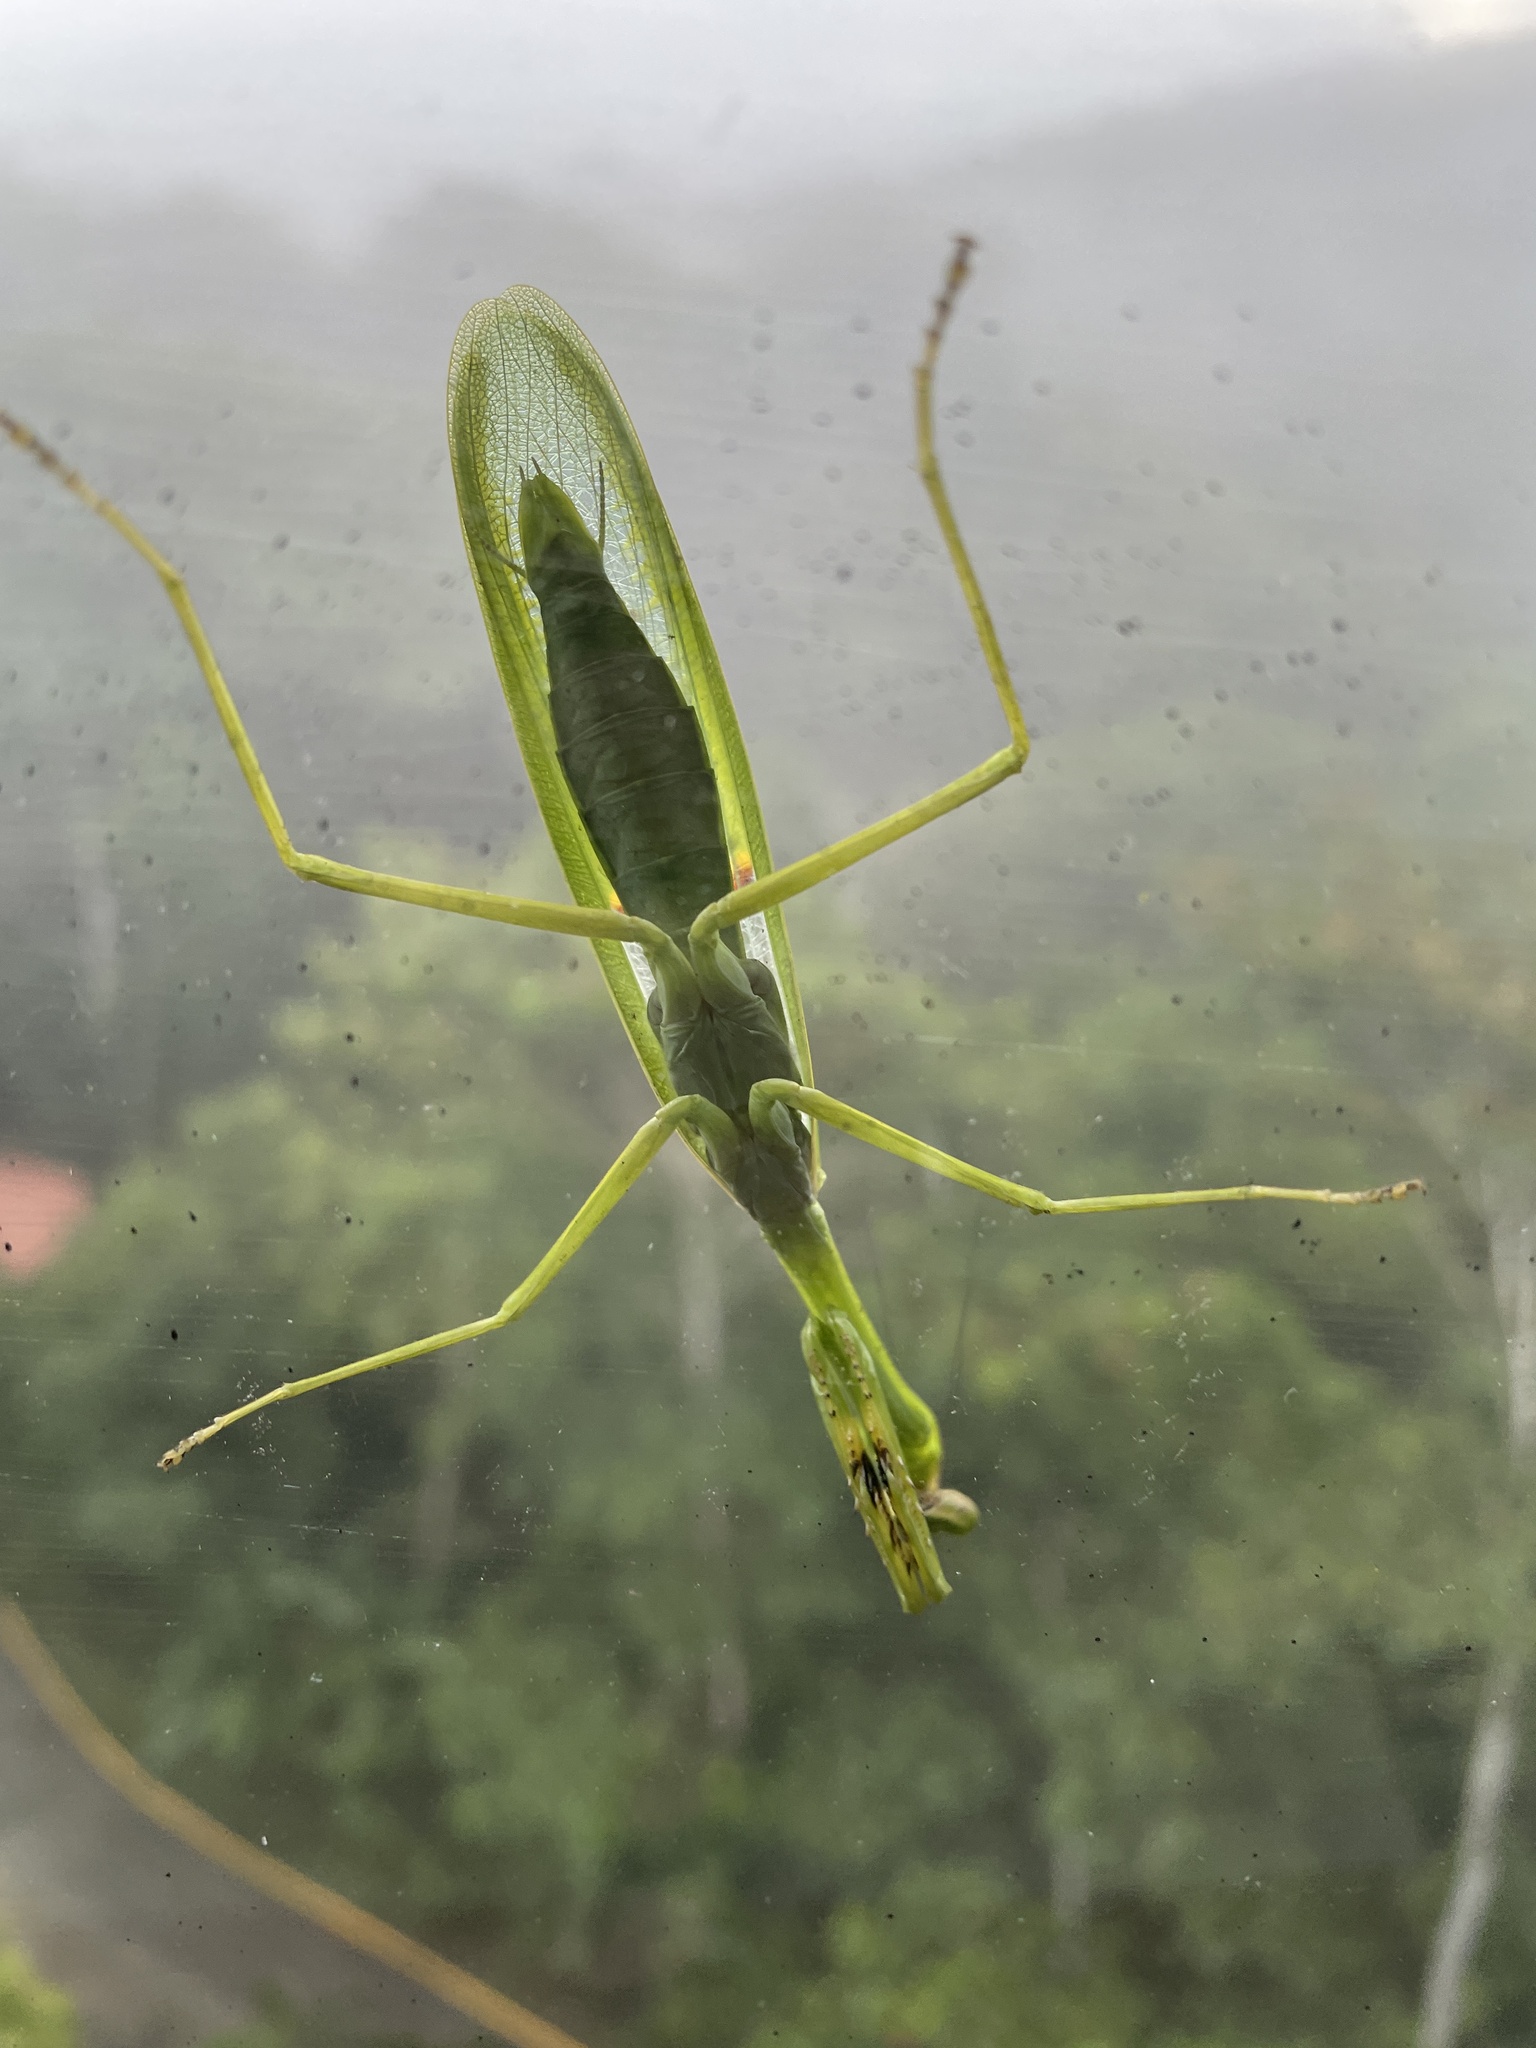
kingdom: Animalia
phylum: Arthropoda
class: Insecta
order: Mantodea
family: Mantidae
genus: Stagmatoptera
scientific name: Stagmatoptera septentrionalis
